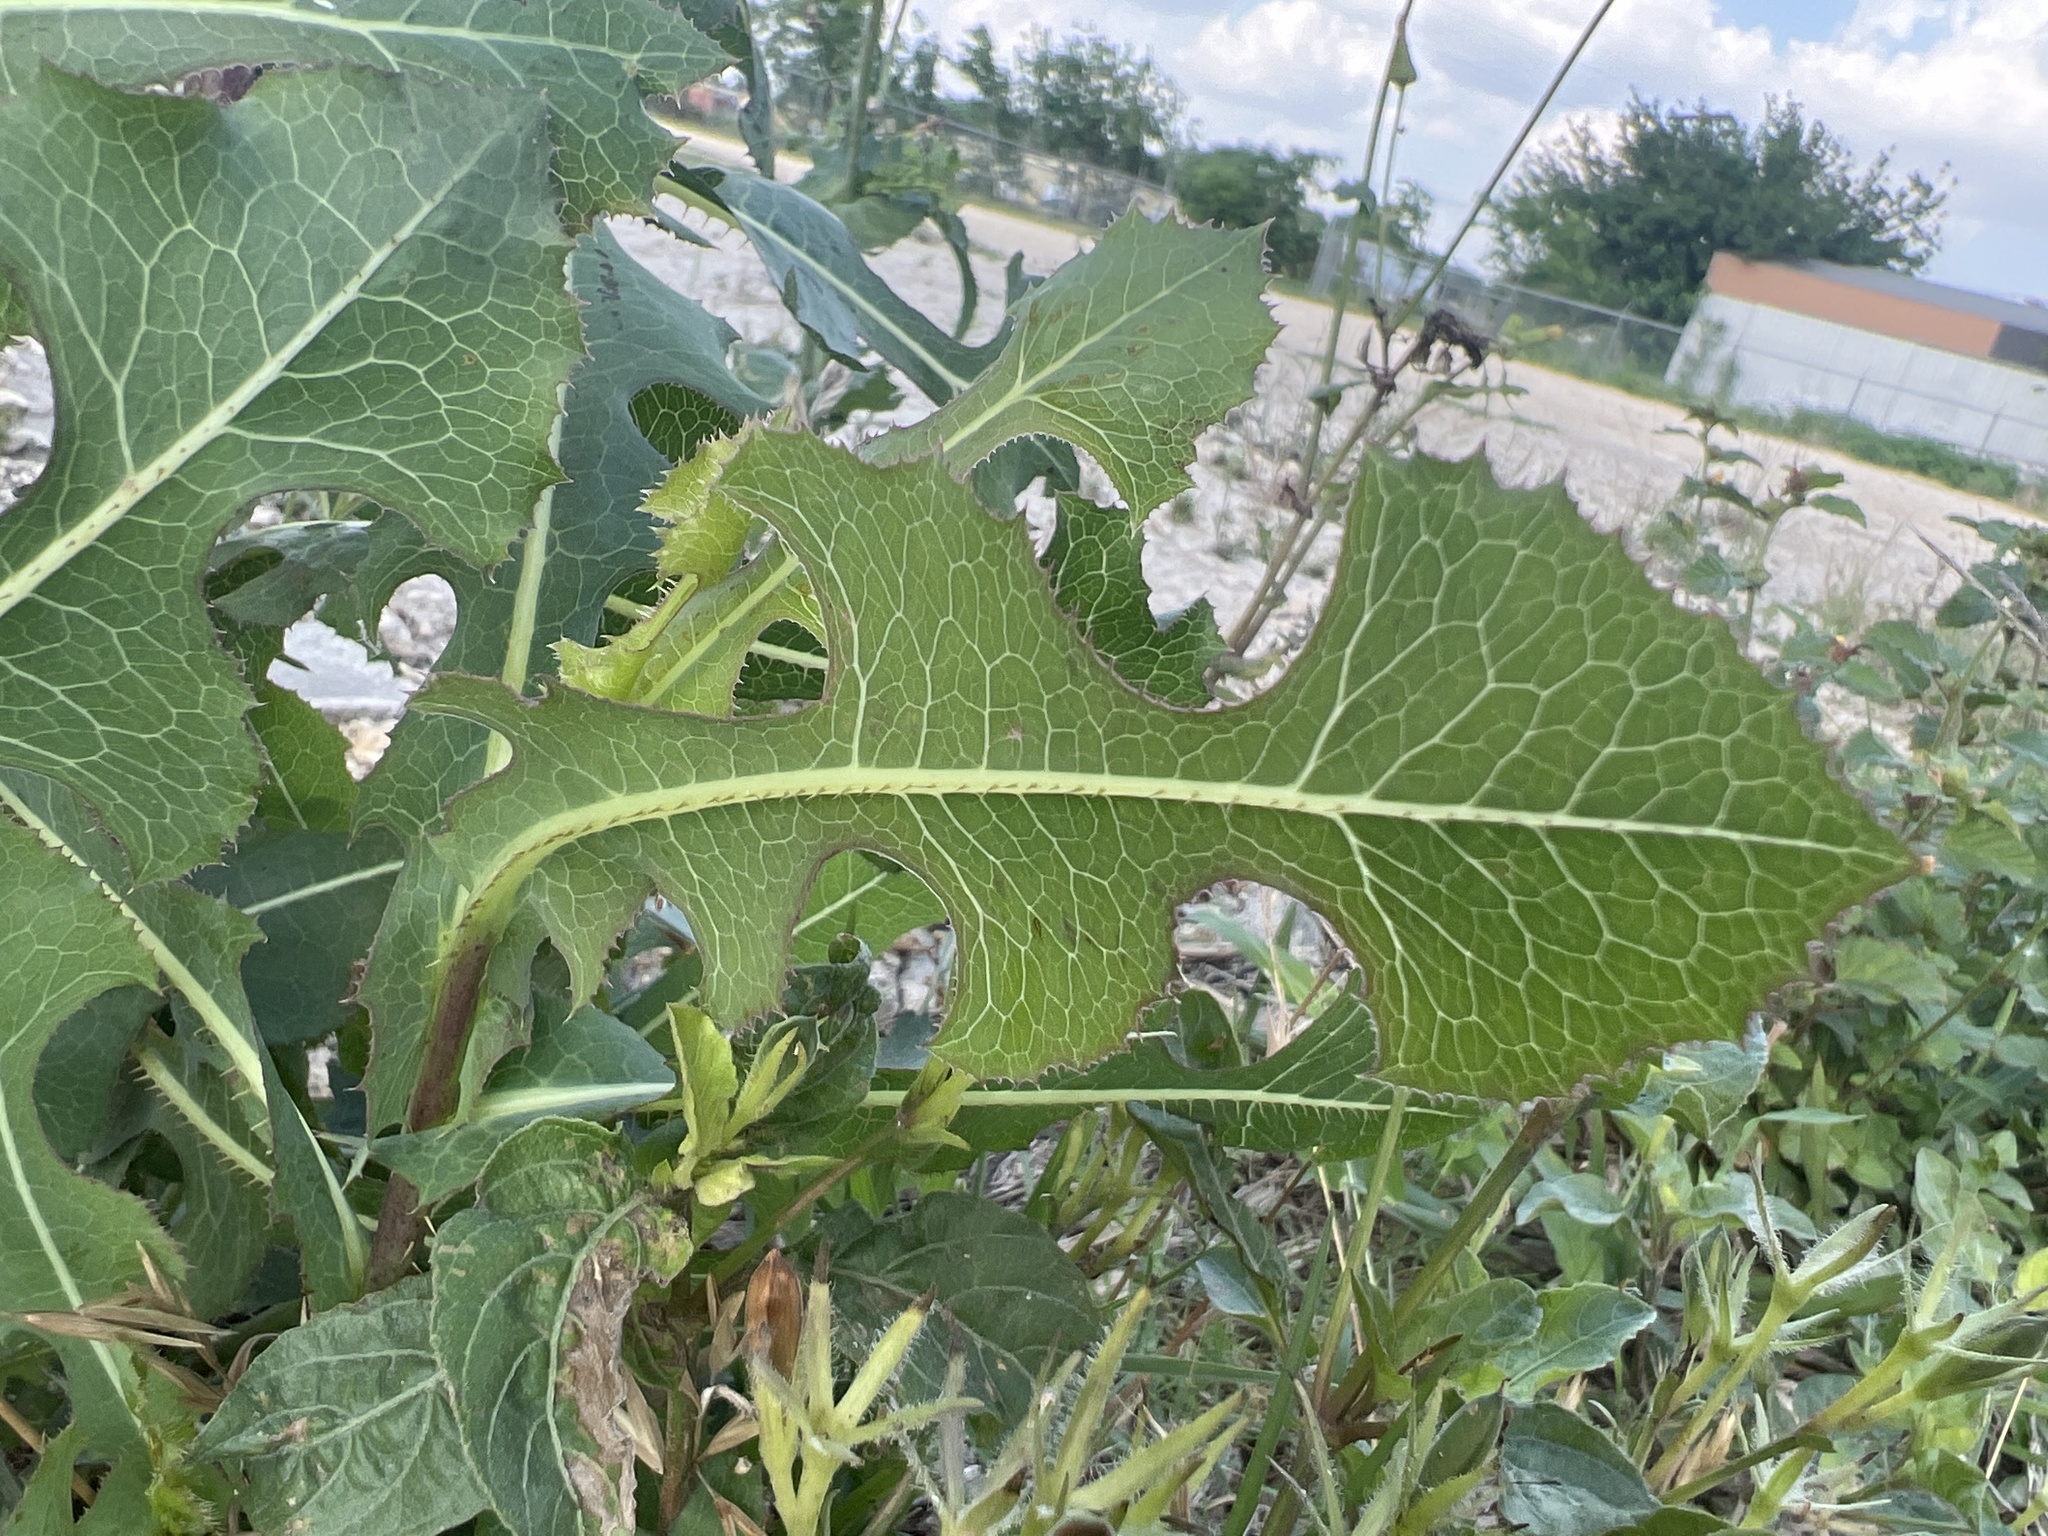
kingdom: Plantae
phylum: Tracheophyta
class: Magnoliopsida
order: Asterales
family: Asteraceae
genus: Lactuca
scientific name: Lactuca serriola
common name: Prickly lettuce
